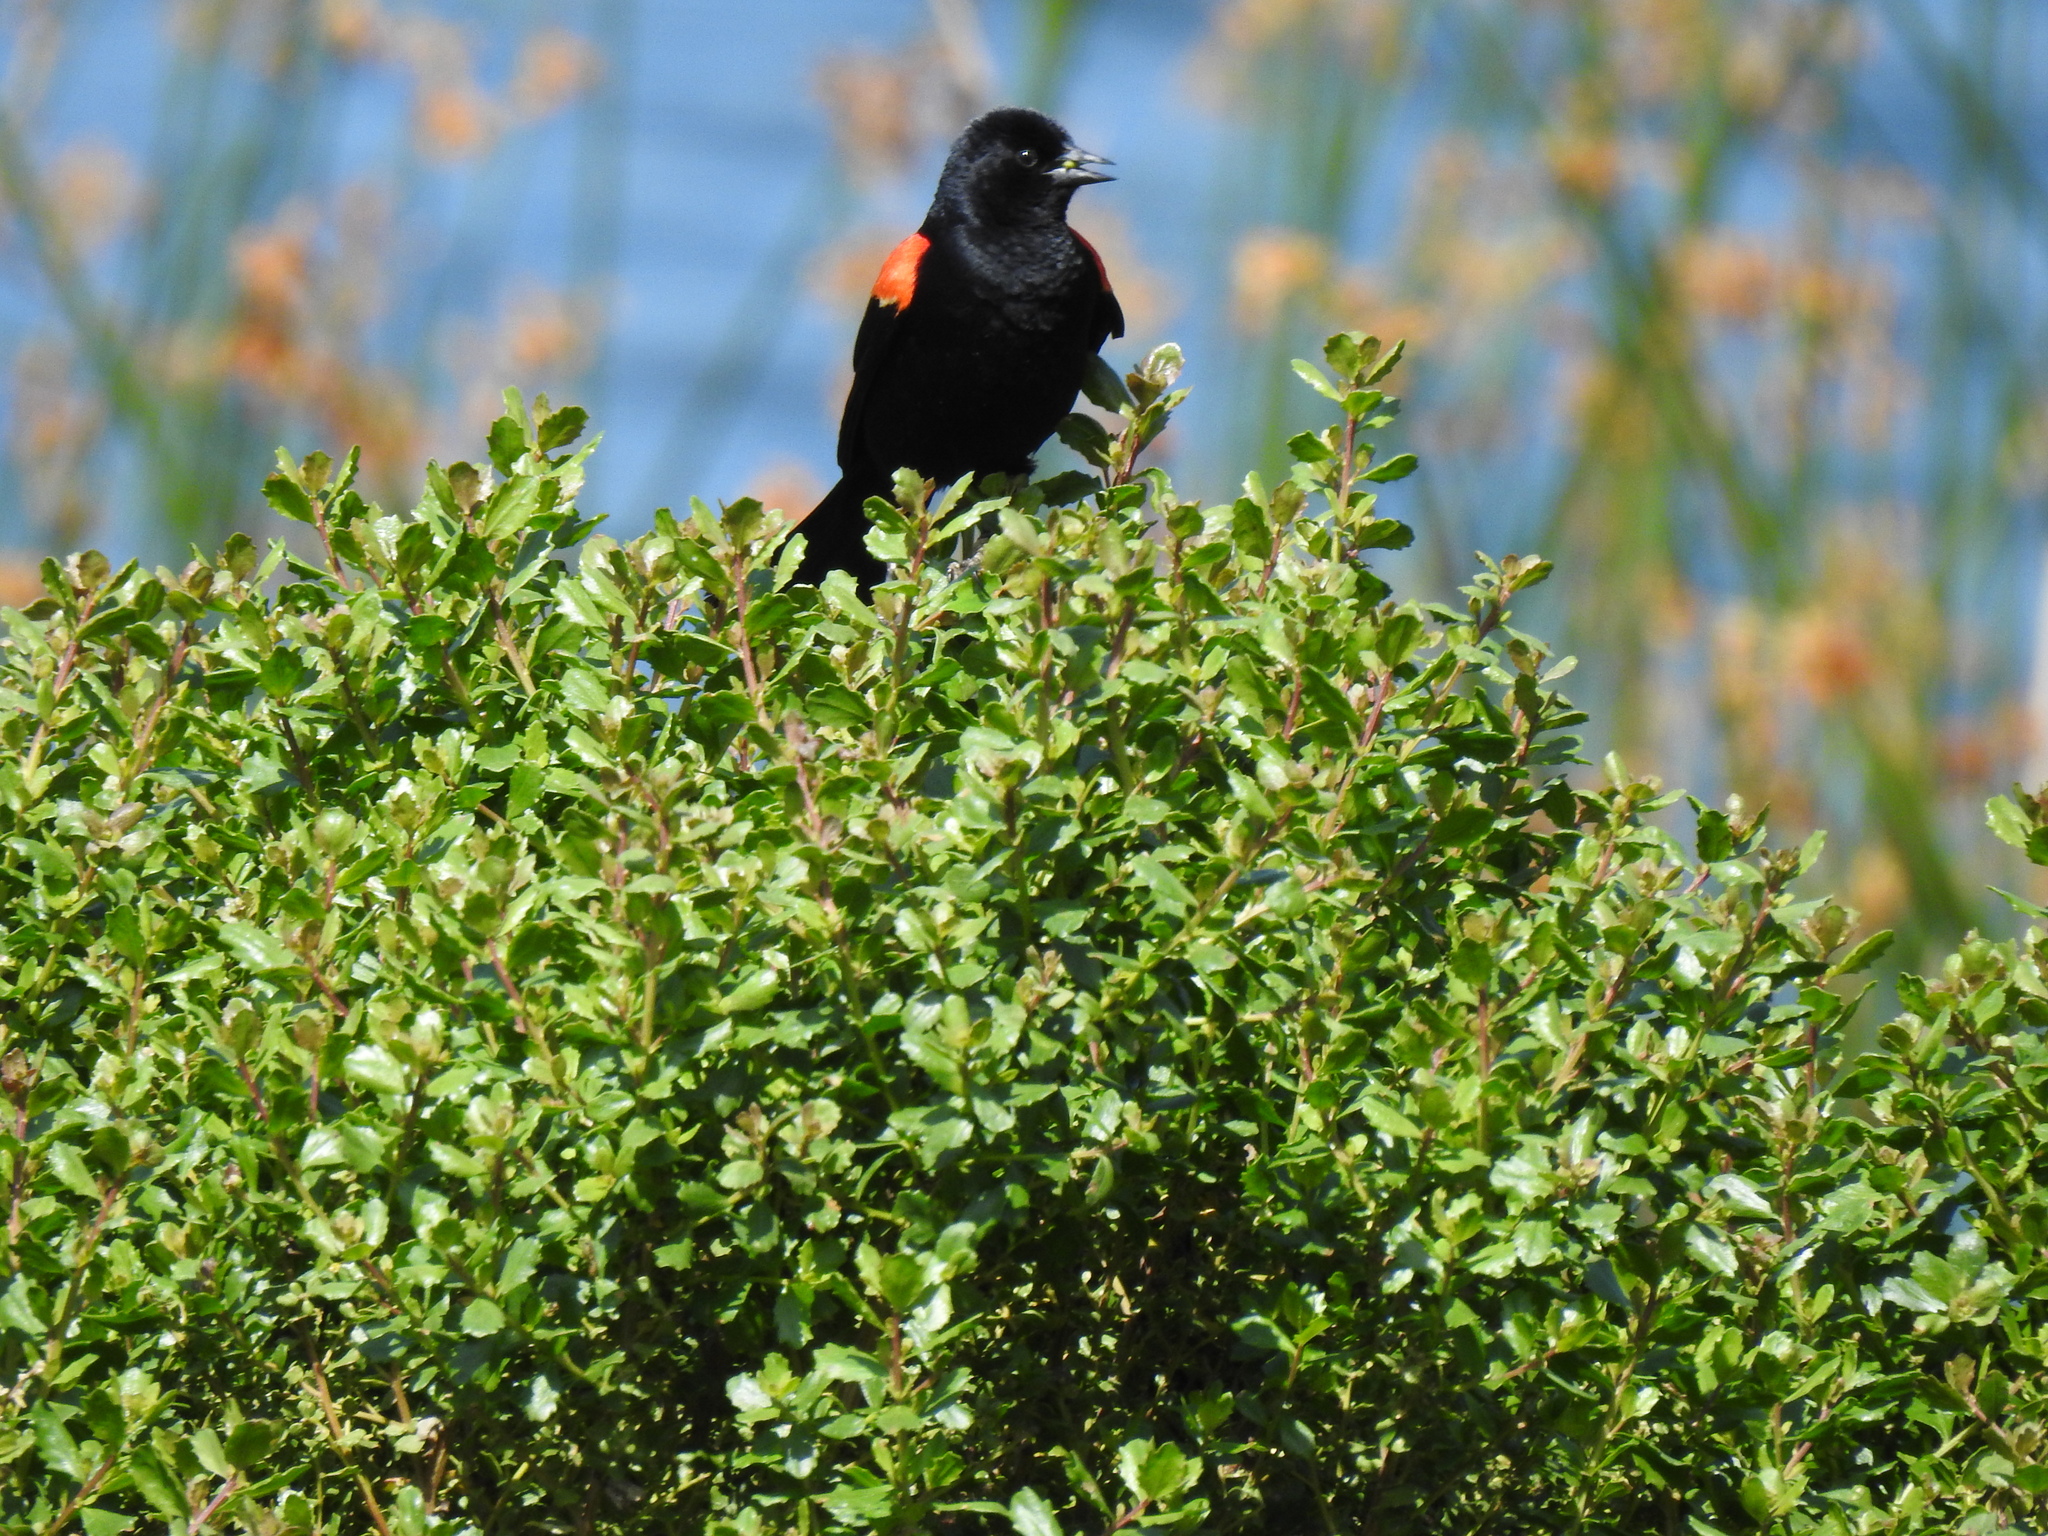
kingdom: Animalia
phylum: Chordata
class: Aves
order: Passeriformes
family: Icteridae
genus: Agelaius
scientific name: Agelaius phoeniceus
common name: Red-winged blackbird
